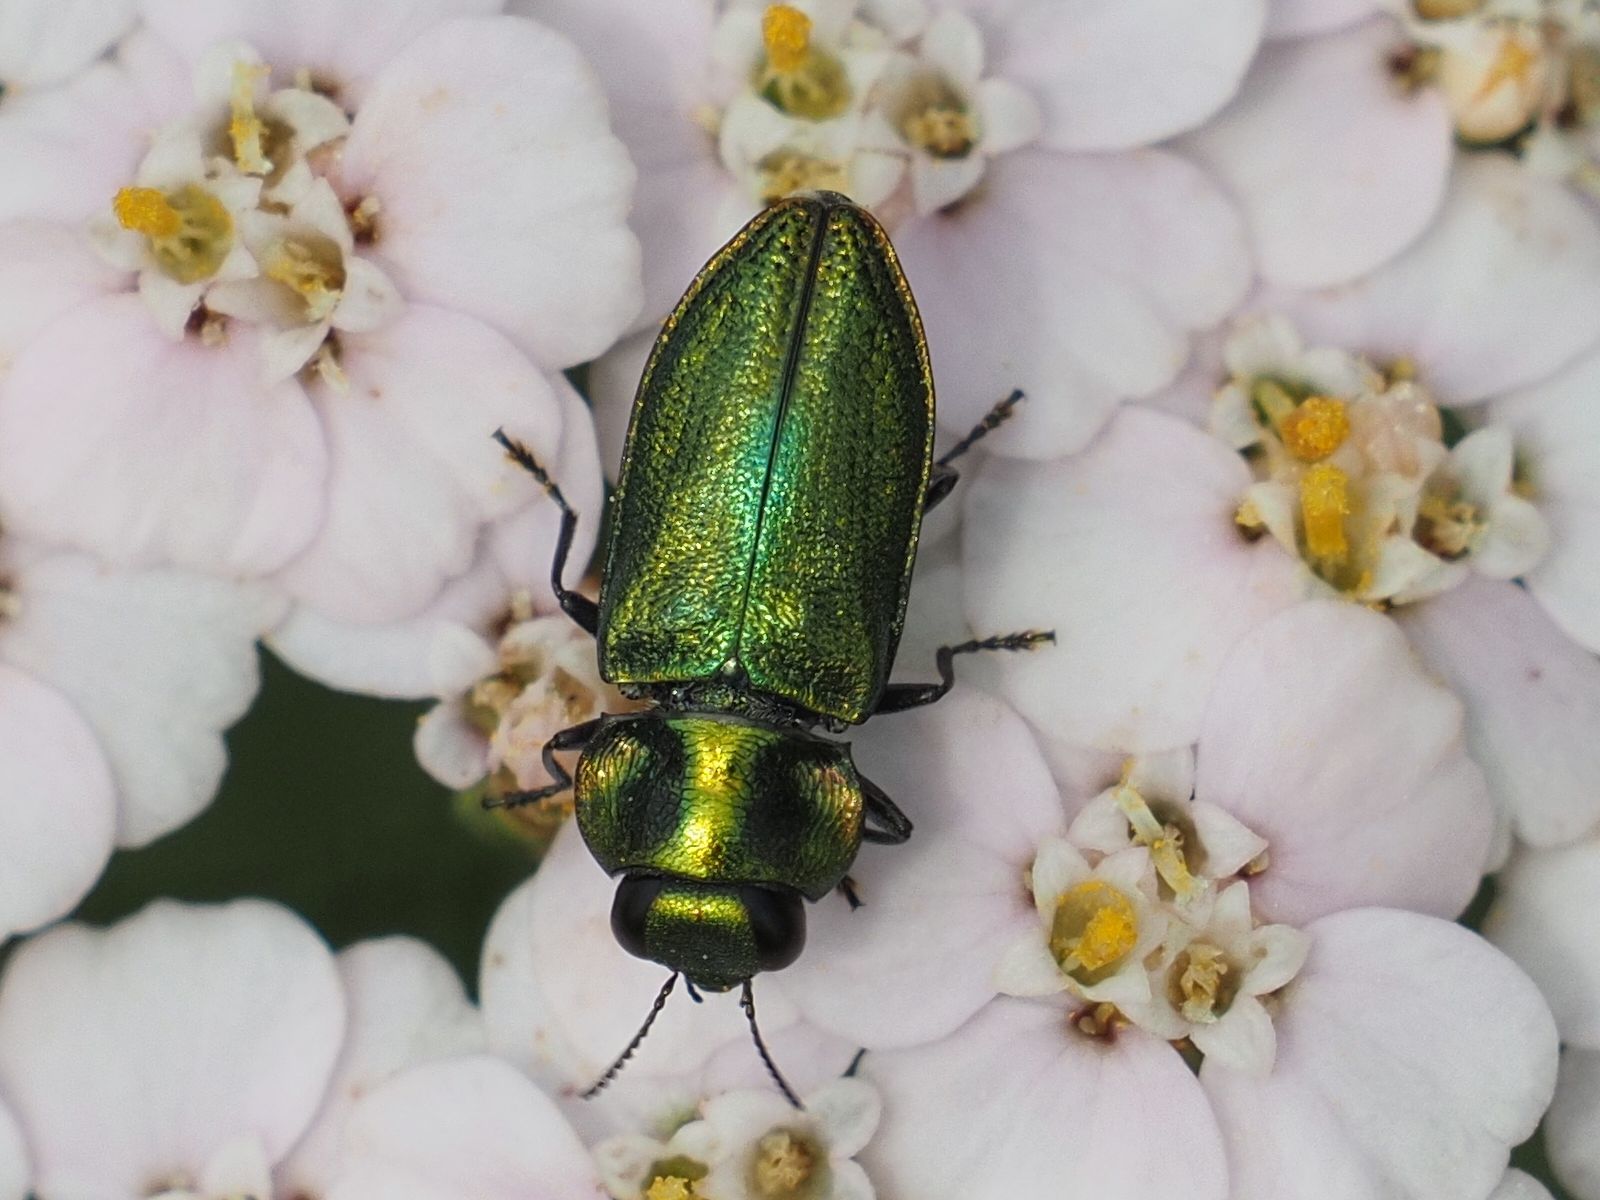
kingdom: Animalia
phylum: Arthropoda
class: Insecta
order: Coleoptera
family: Buprestidae
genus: Anthaxia
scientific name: Anthaxia fulgurans
